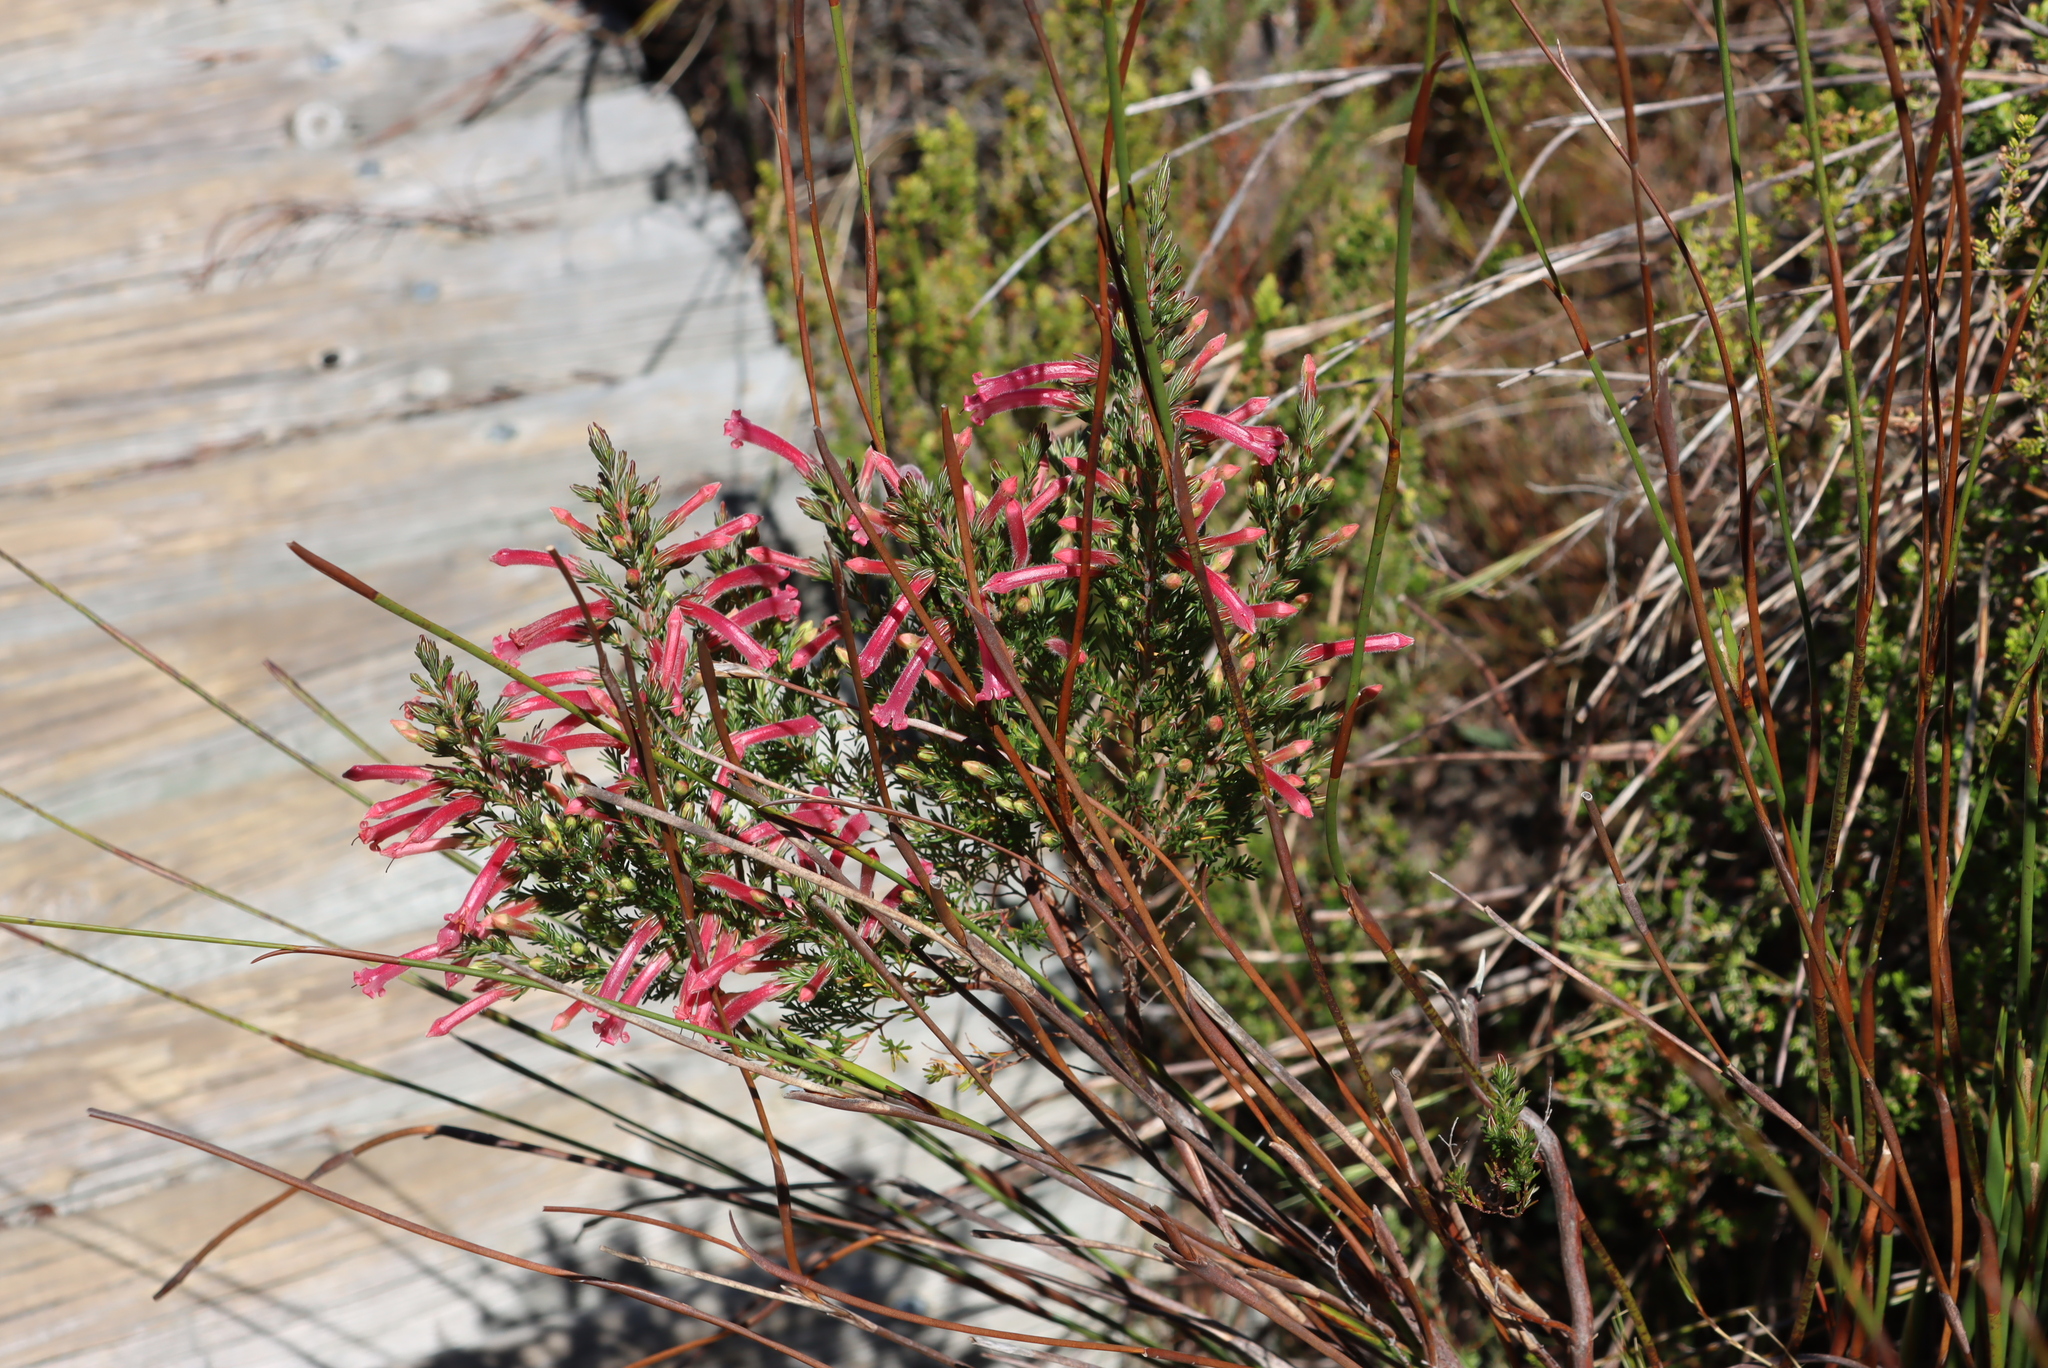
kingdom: Plantae
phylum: Tracheophyta
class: Magnoliopsida
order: Ericales
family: Ericaceae
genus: Erica
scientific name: Erica curviflora
